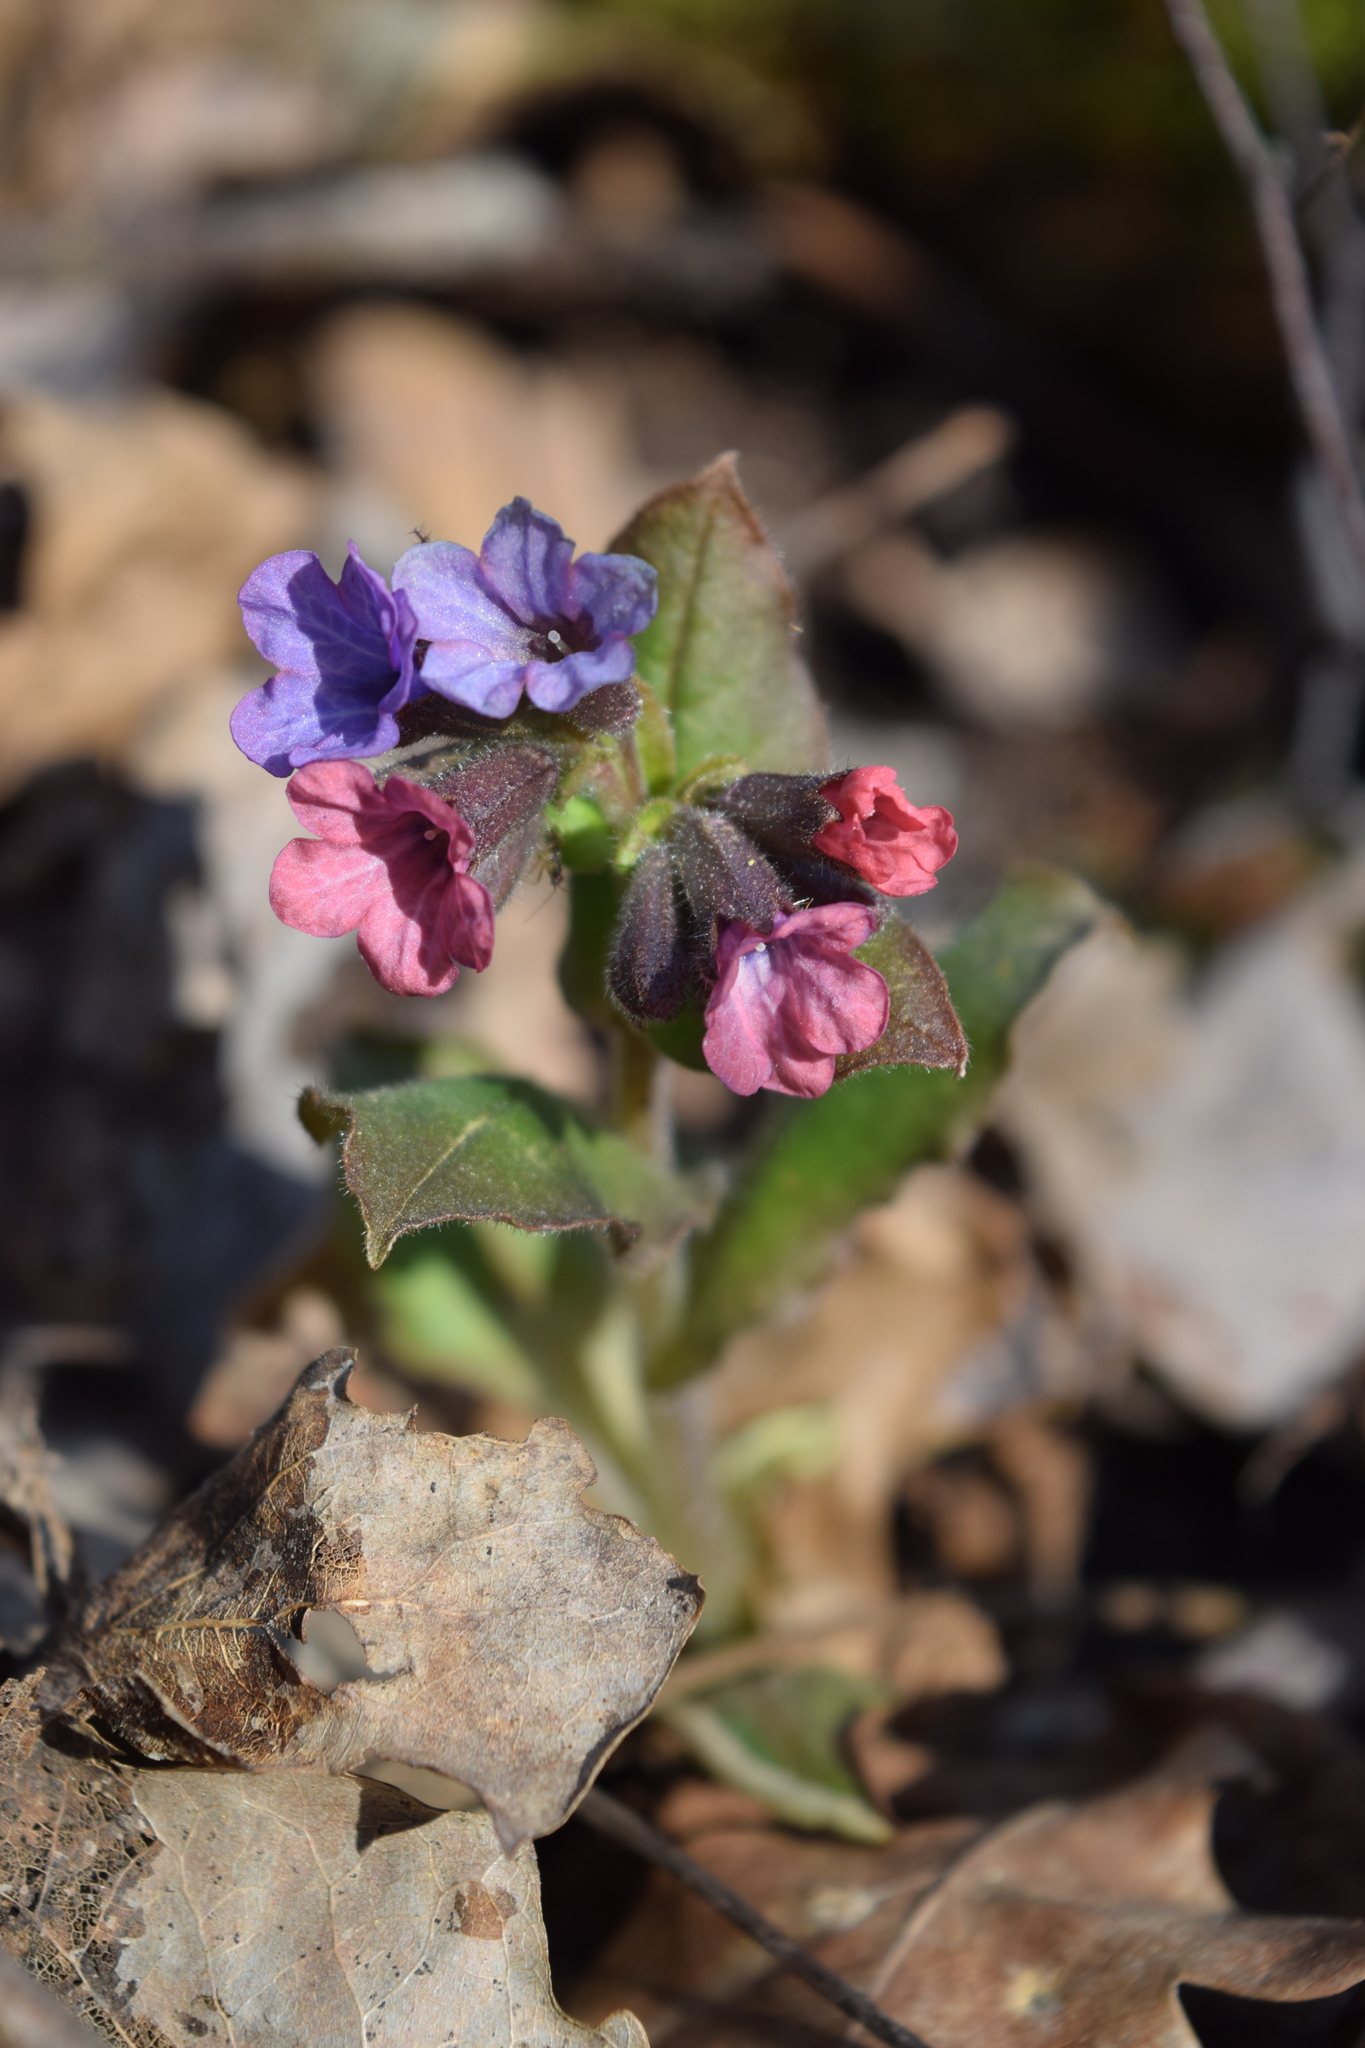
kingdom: Plantae
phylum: Tracheophyta
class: Magnoliopsida
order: Boraginales
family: Boraginaceae
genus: Pulmonaria
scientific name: Pulmonaria obscura
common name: Suffolk lungwort
